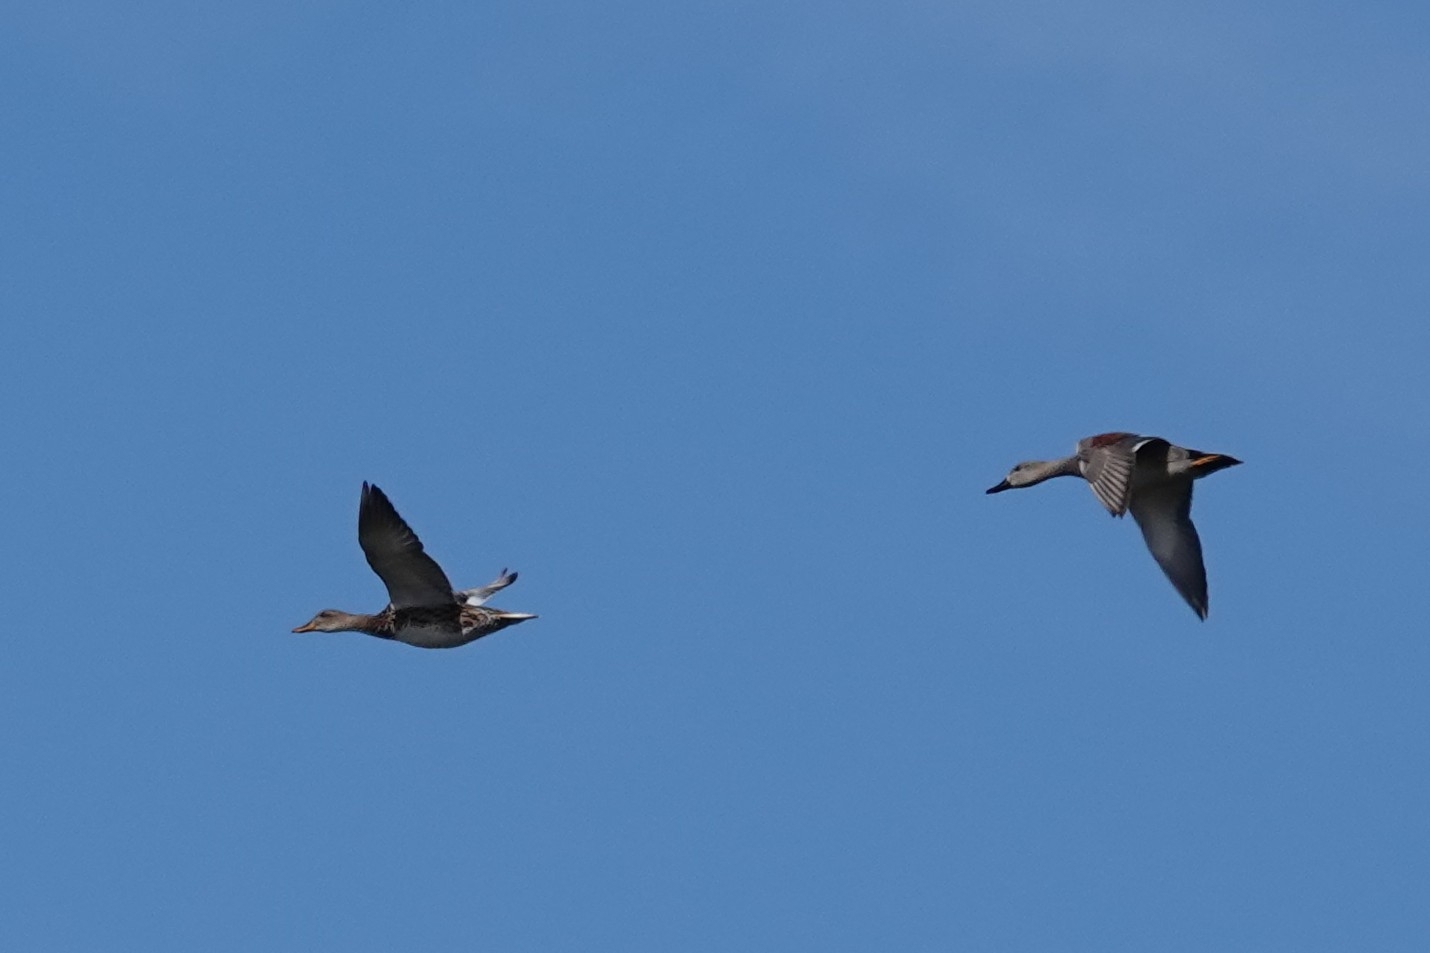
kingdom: Animalia
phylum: Chordata
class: Aves
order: Anseriformes
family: Anatidae
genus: Mareca
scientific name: Mareca strepera
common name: Gadwall
